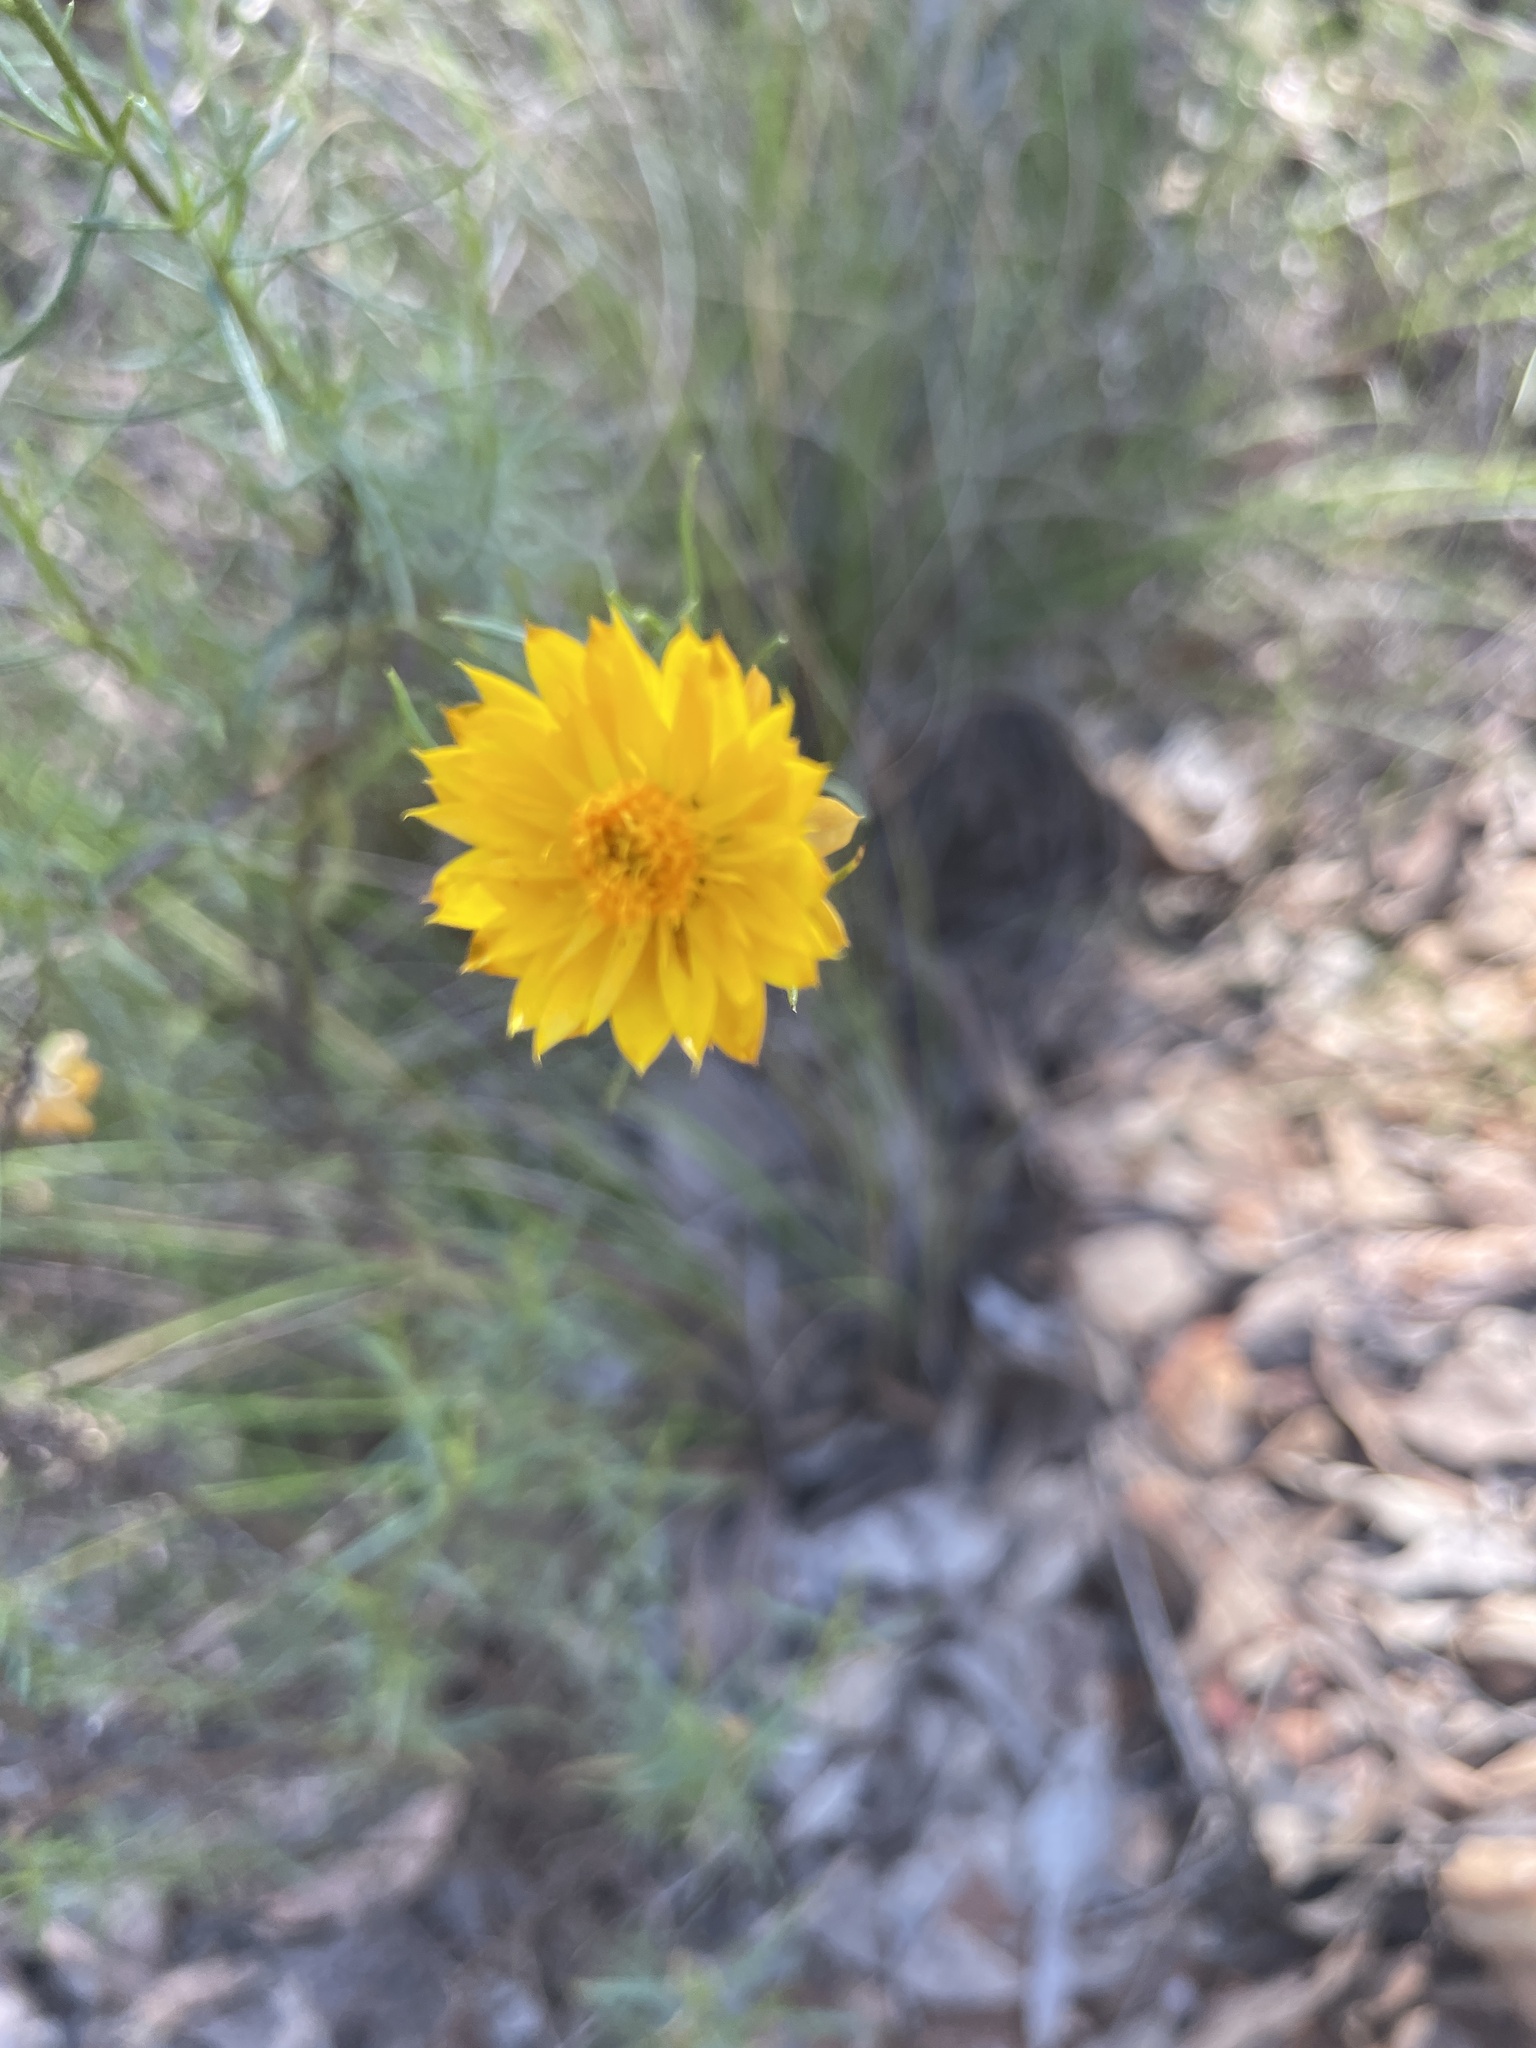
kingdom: Plantae
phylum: Tracheophyta
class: Magnoliopsida
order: Asterales
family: Asteraceae
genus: Xerochrysum
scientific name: Xerochrysum viscosum
